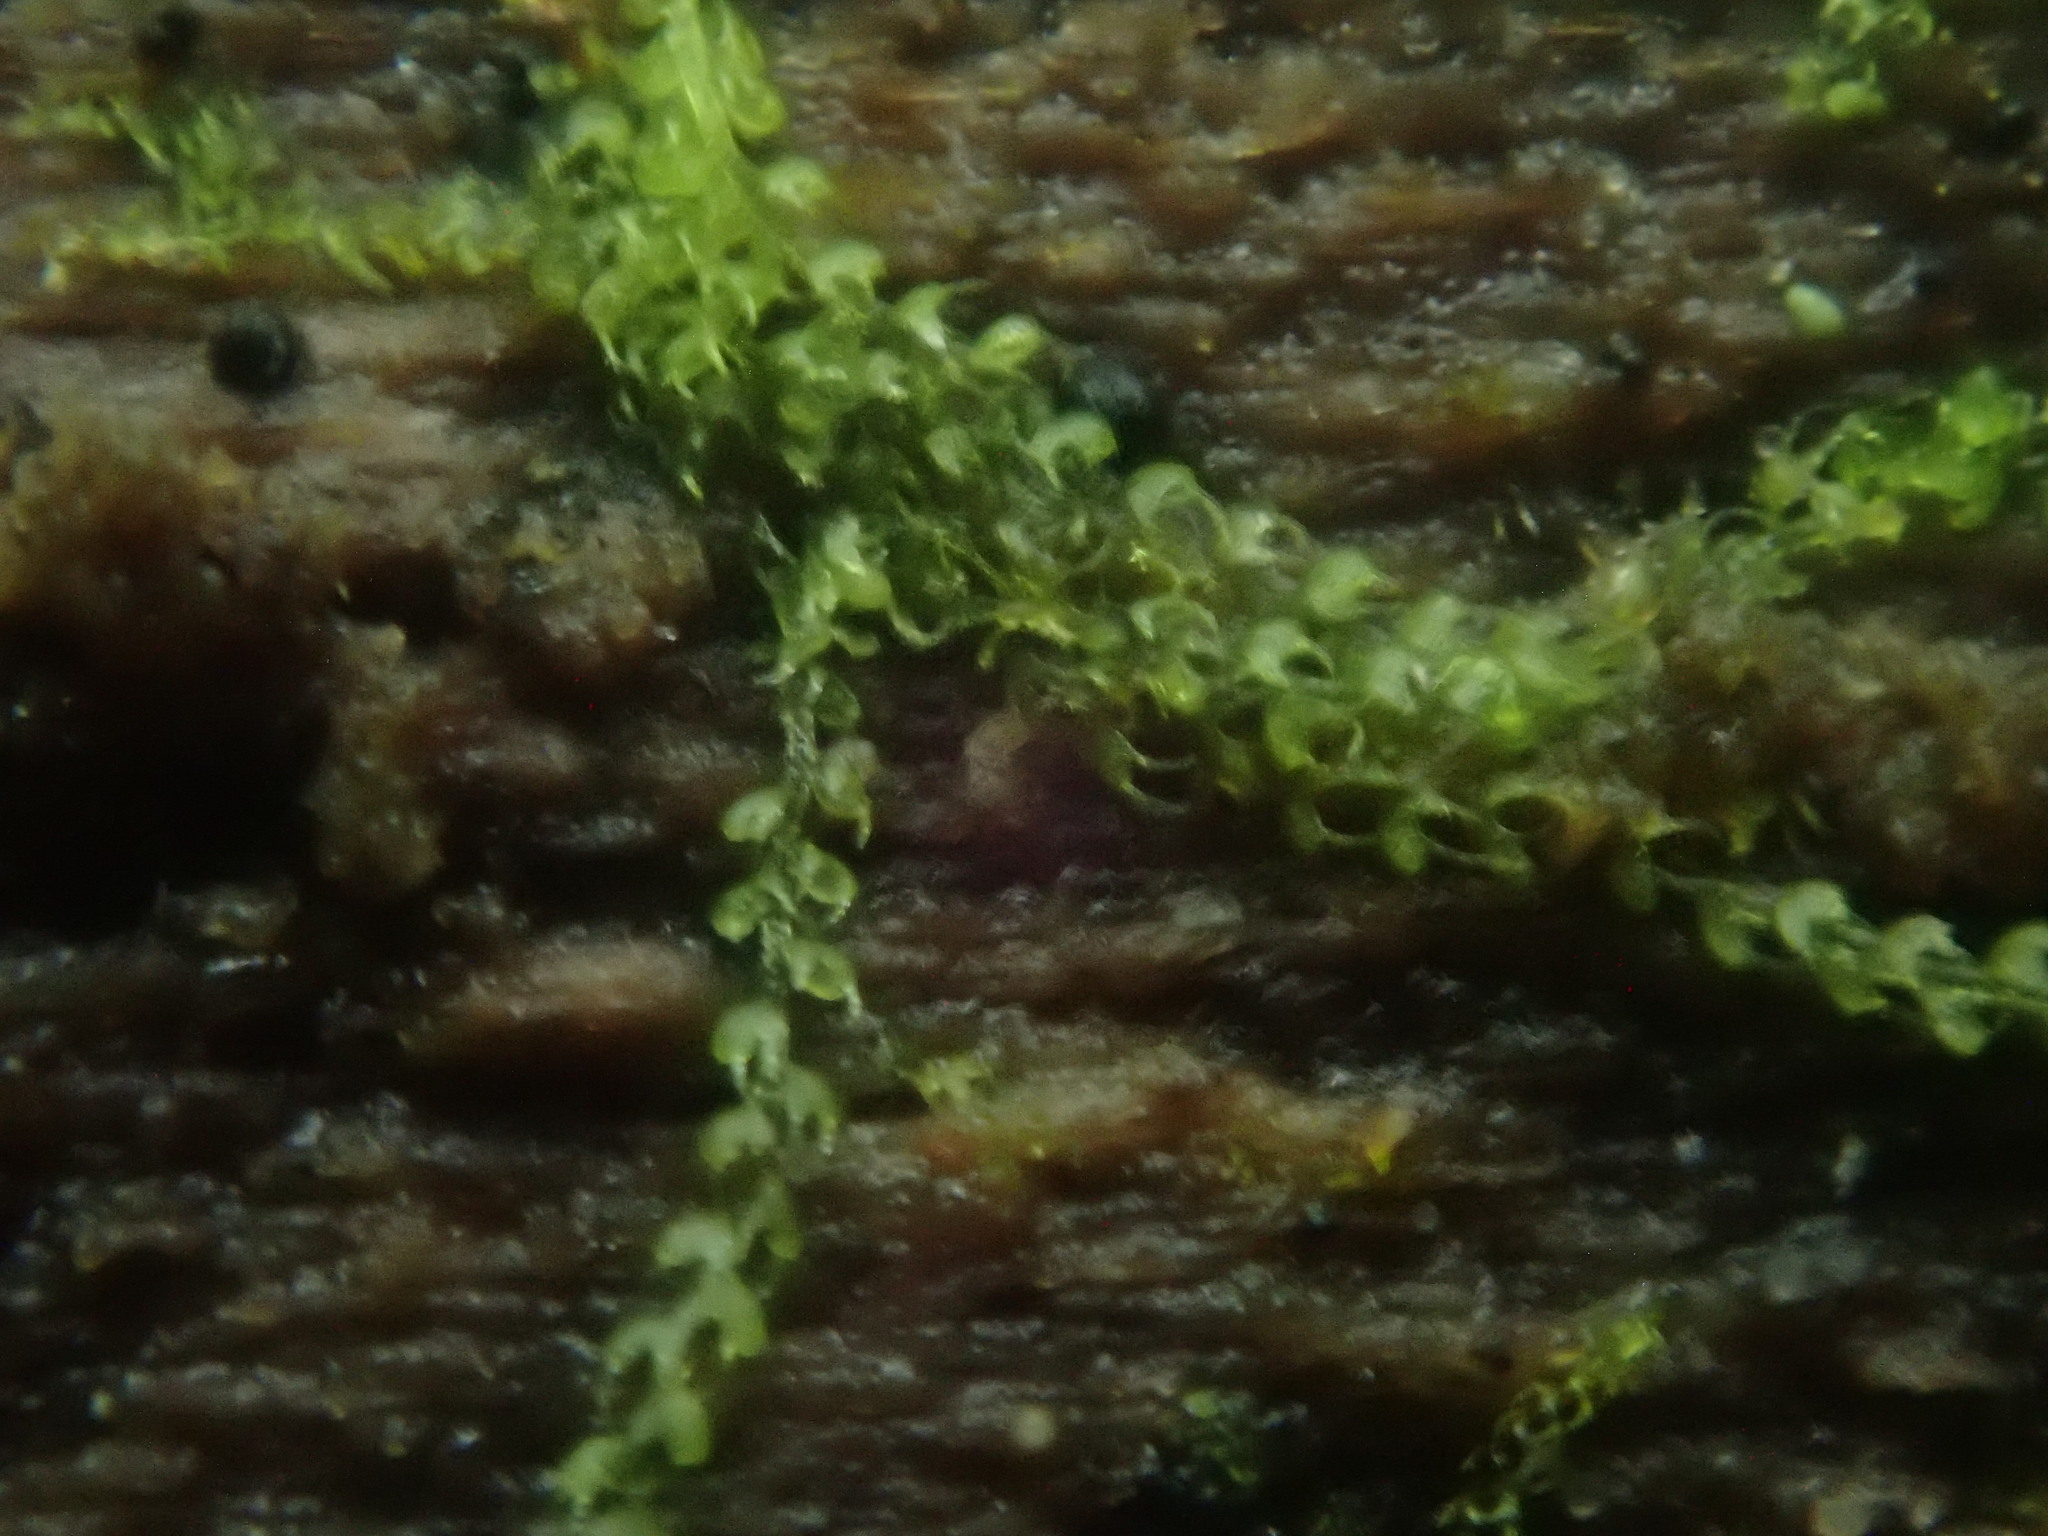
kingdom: Plantae
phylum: Marchantiophyta
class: Jungermanniopsida
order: Jungermanniales
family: Cephaloziaceae
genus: Nowellia
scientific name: Nowellia curvifolia
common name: Wood rustwort
